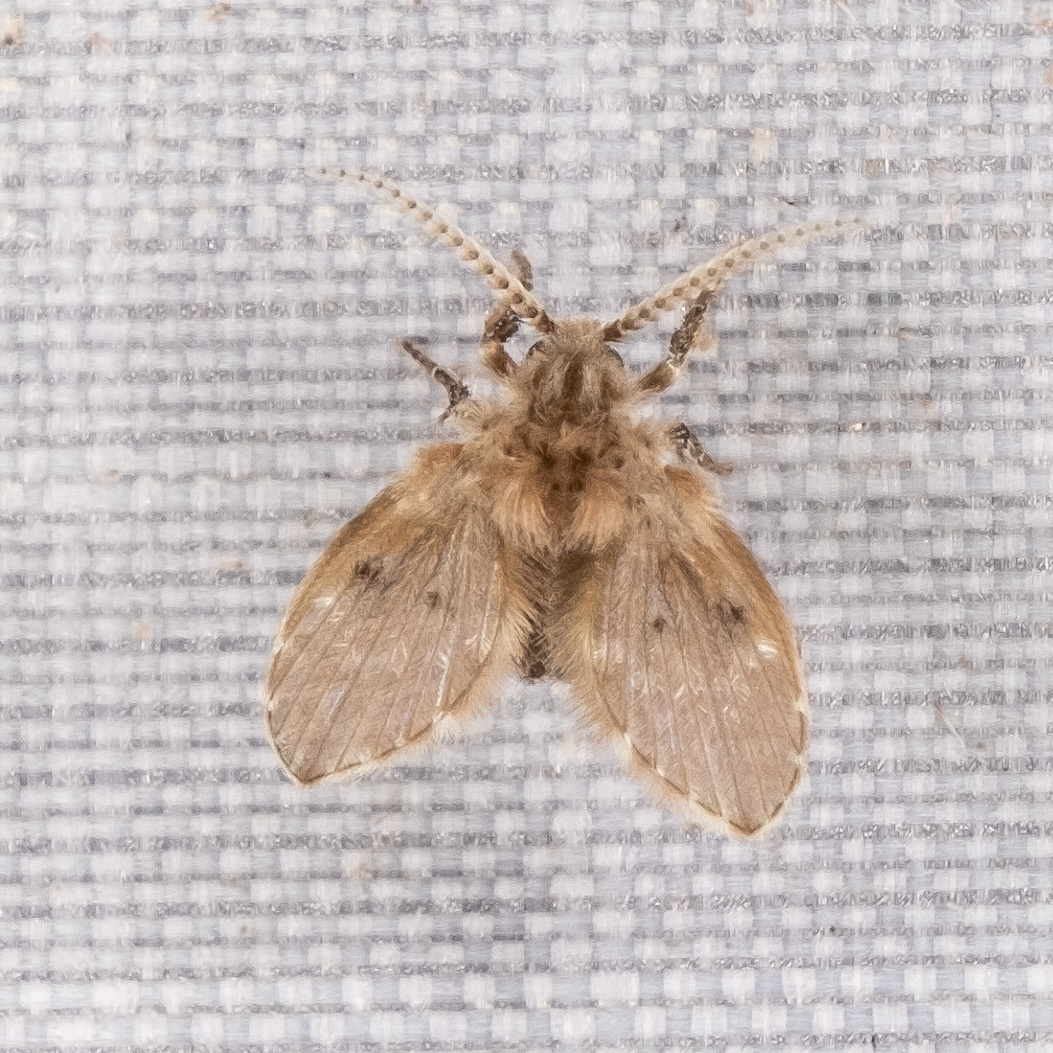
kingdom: Animalia
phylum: Arthropoda
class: Insecta
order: Diptera
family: Psychodidae
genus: Clogmia
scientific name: Clogmia albipunctatus
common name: White-spotted moth fly
